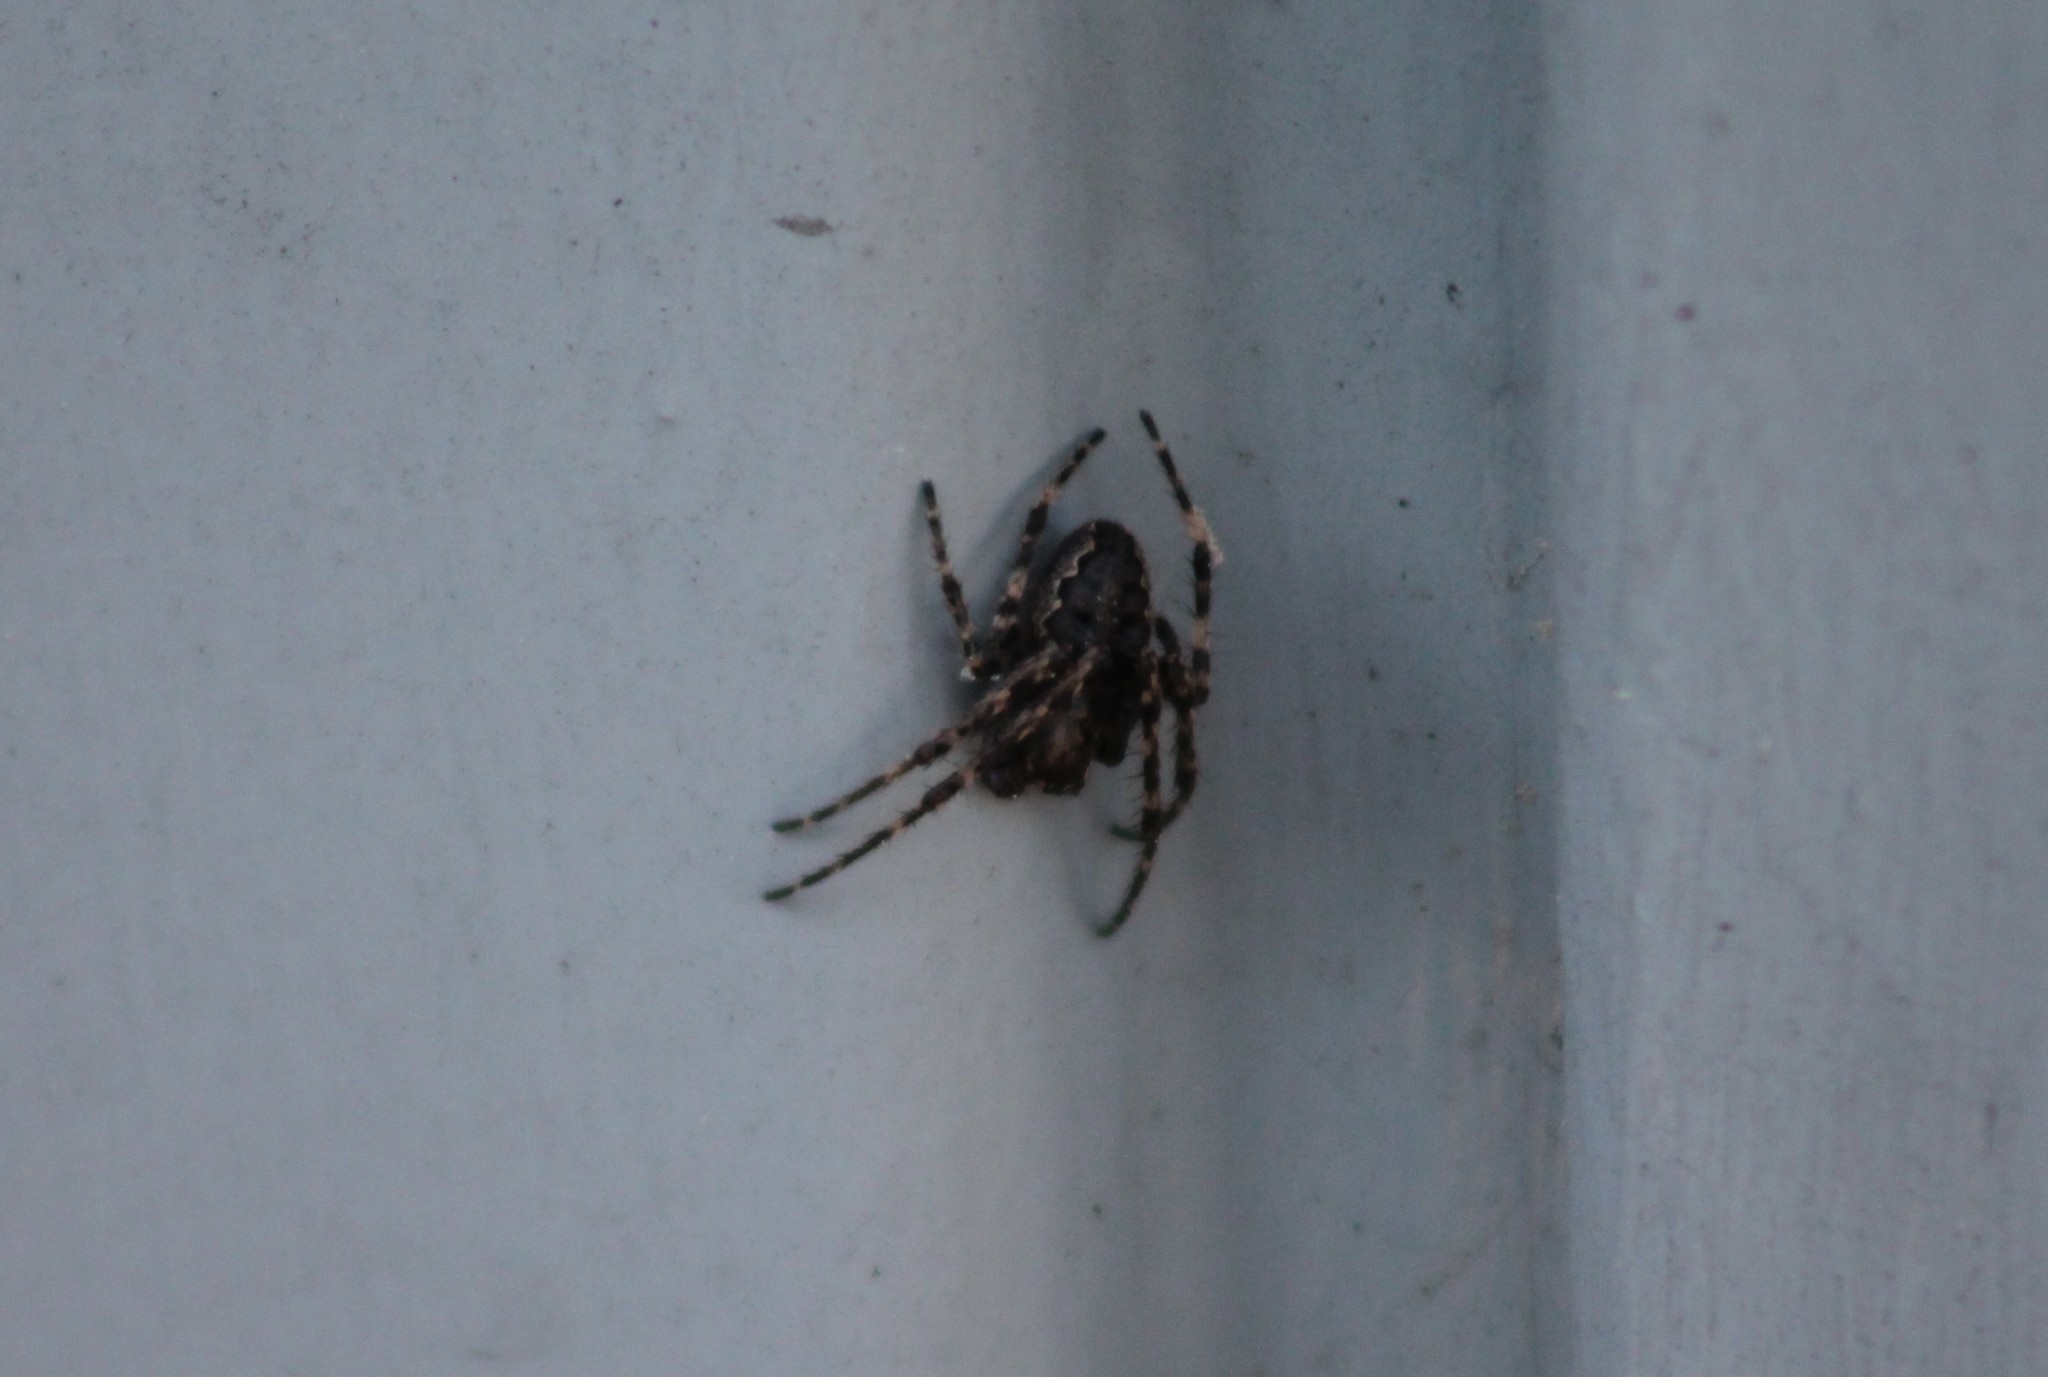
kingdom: Animalia
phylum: Arthropoda
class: Arachnida
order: Araneae
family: Araneidae
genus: Nuctenea
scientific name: Nuctenea umbratica
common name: Toad spider
